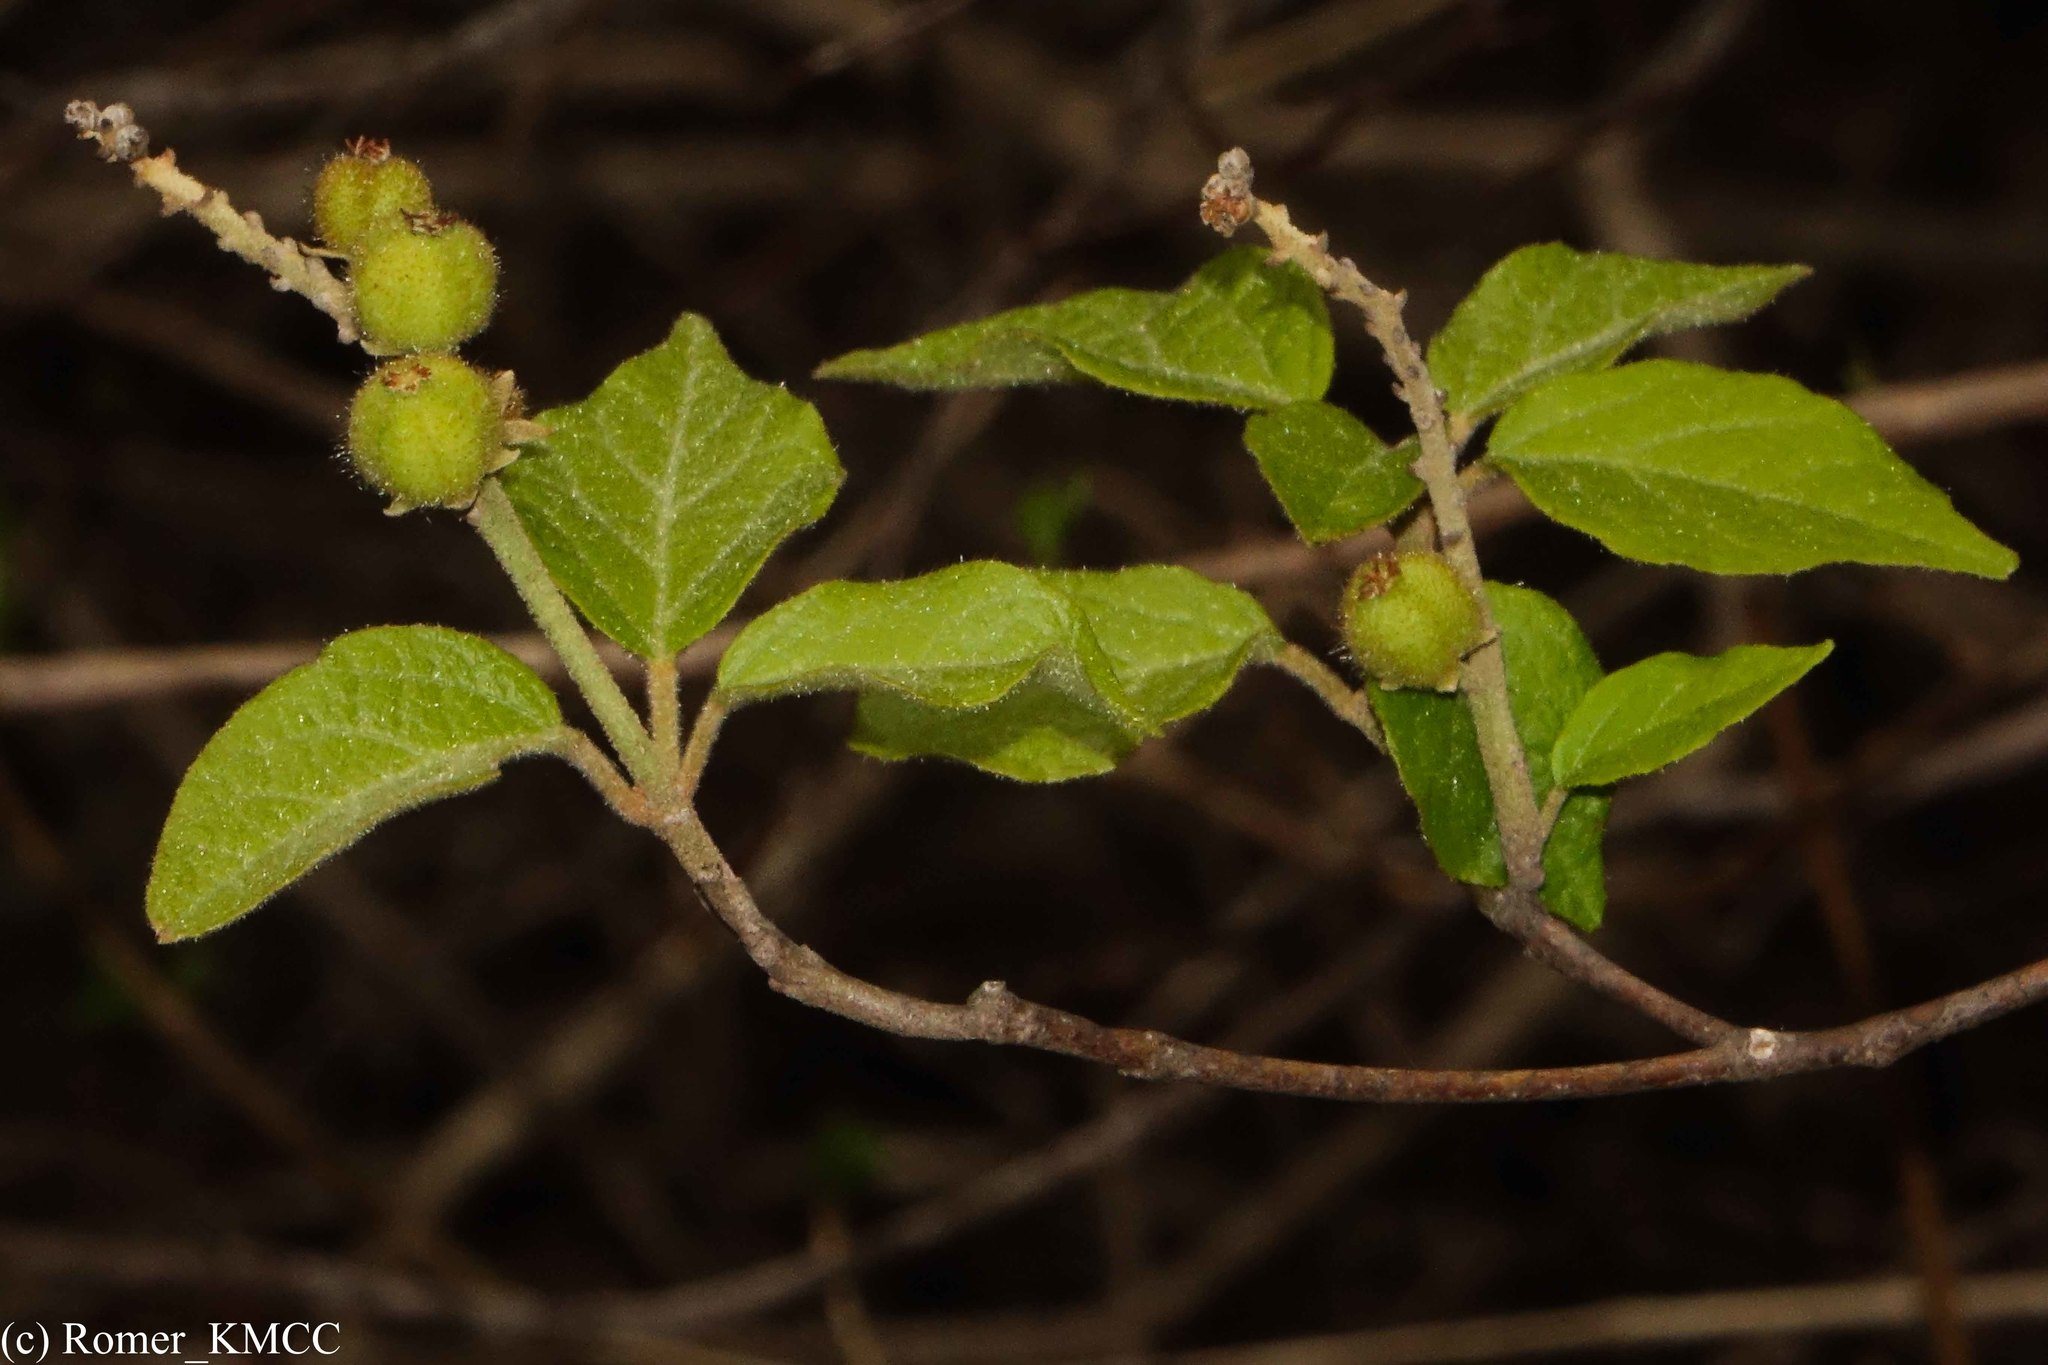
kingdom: Plantae
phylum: Tracheophyta
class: Magnoliopsida
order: Malpighiales
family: Euphorbiaceae
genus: Croton
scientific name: Croton danguyanus
